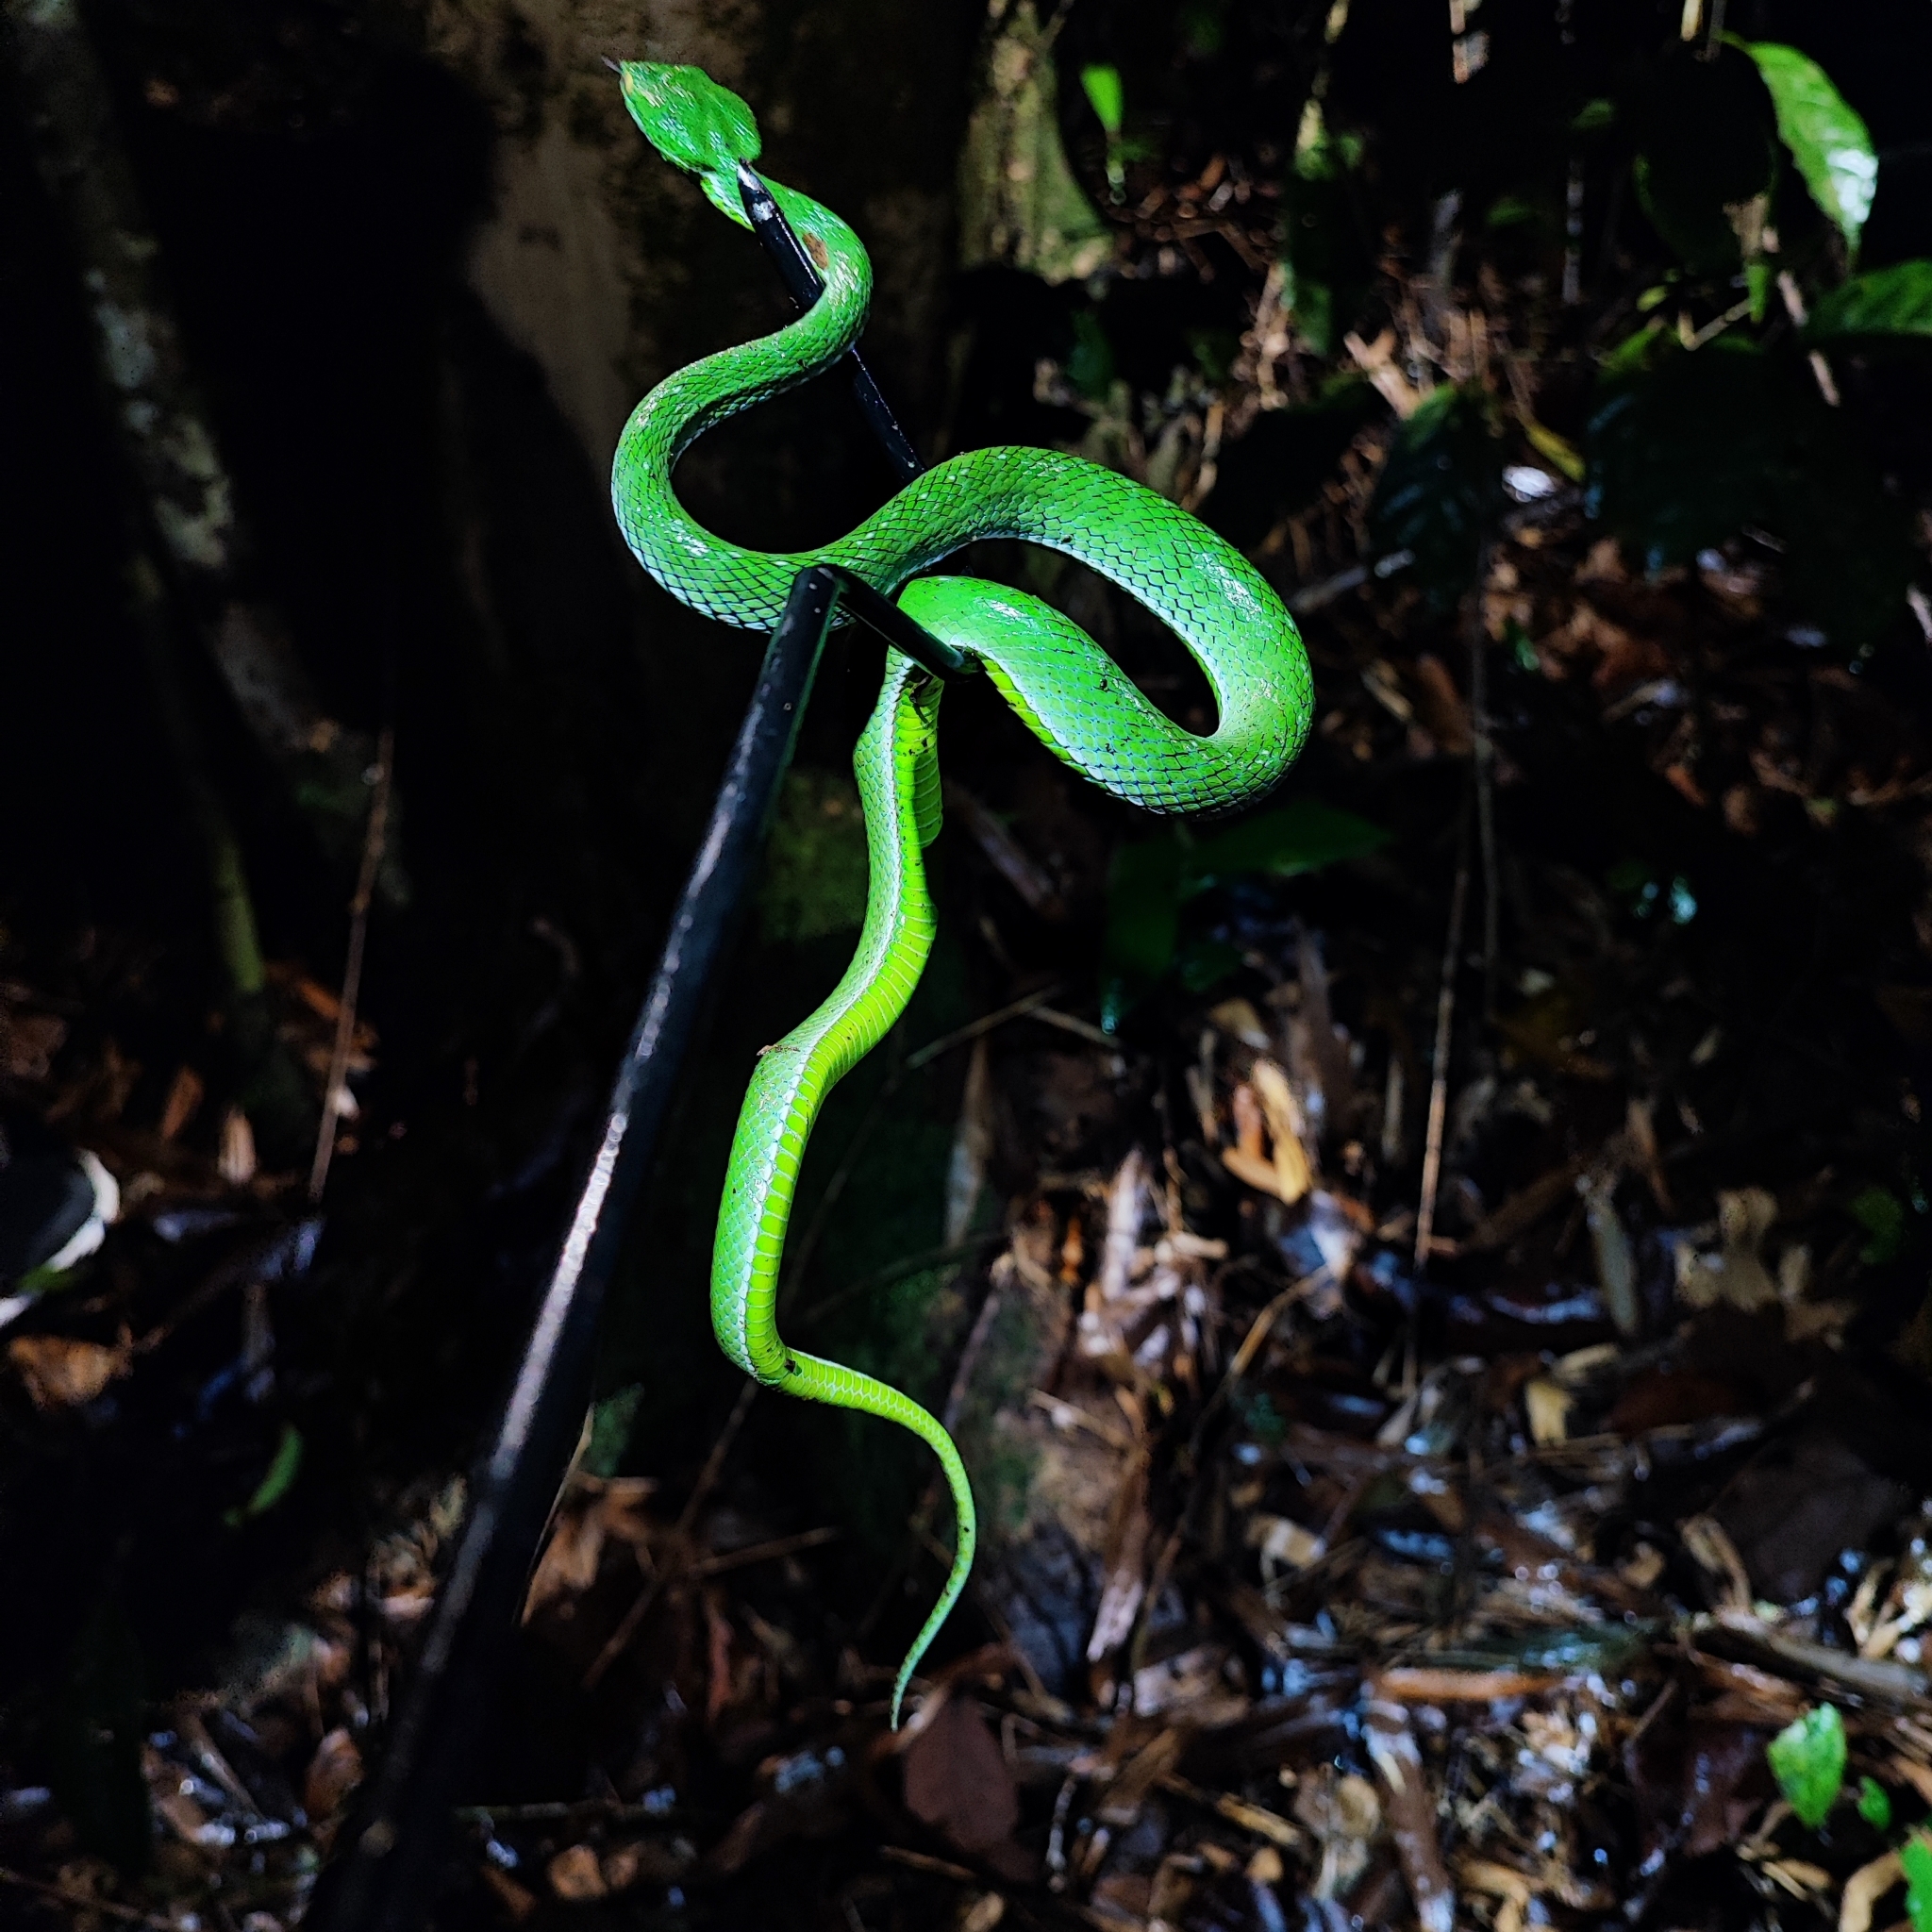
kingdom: Animalia
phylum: Chordata
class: Squamata
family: Viperidae
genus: Trimeresurus
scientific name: Trimeresurus vogeli
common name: Vogel's pit viper
